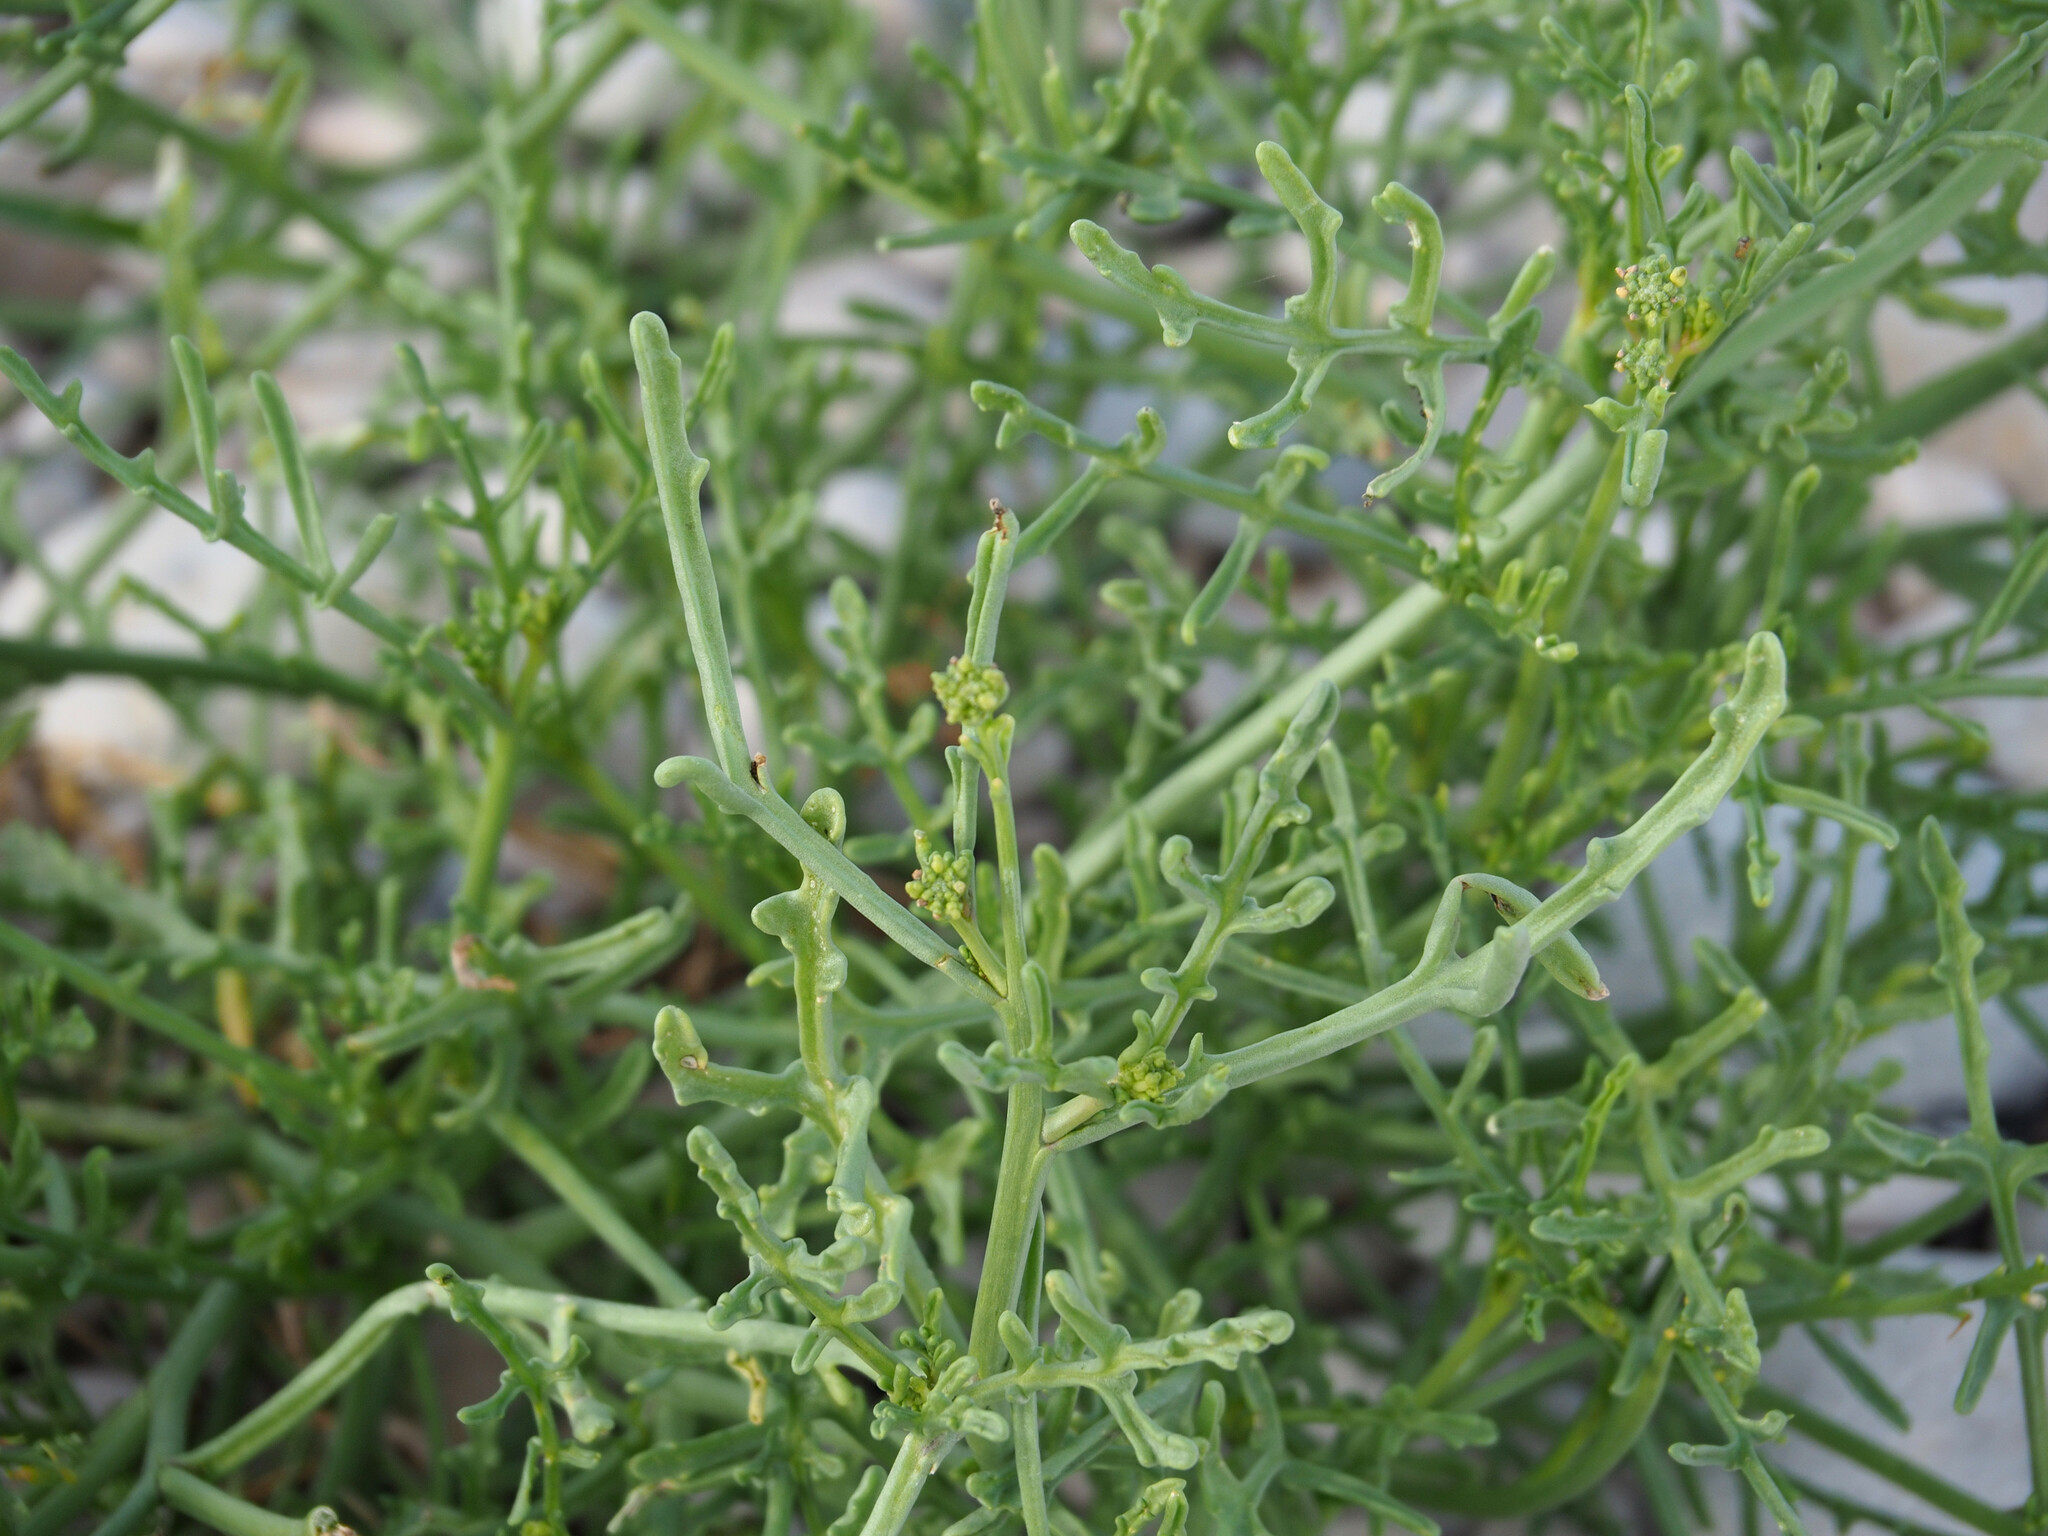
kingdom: Plantae
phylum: Tracheophyta
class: Magnoliopsida
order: Brassicales
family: Brassicaceae
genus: Cakile
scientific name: Cakile maritima
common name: Sea rocket
